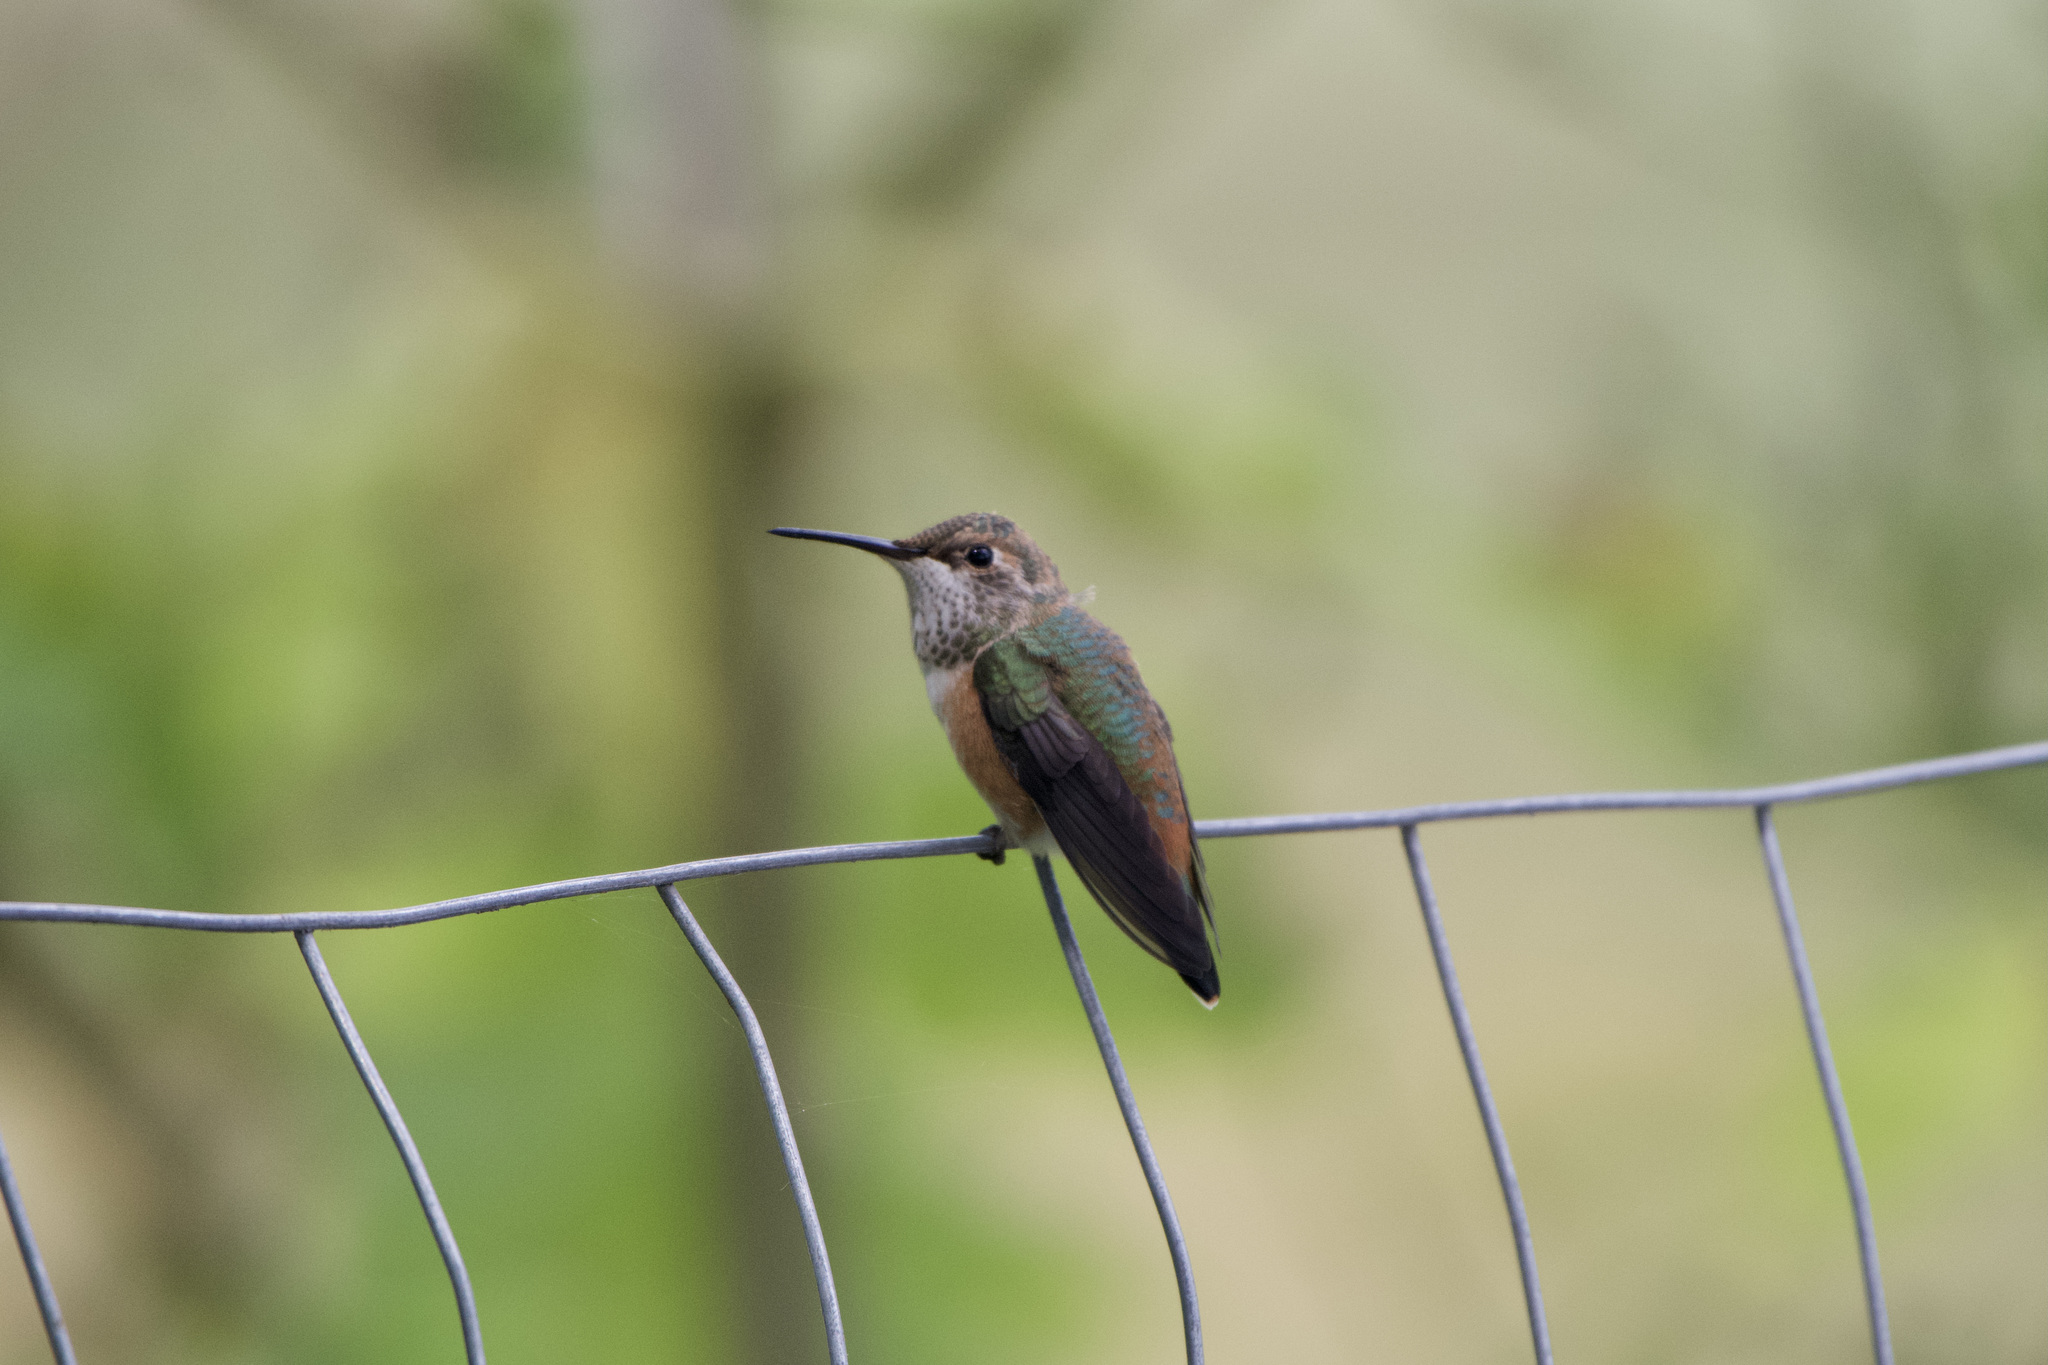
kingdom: Animalia
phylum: Chordata
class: Aves
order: Apodiformes
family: Trochilidae
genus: Selasphorus
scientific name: Selasphorus sasin
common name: Allen's hummingbird
